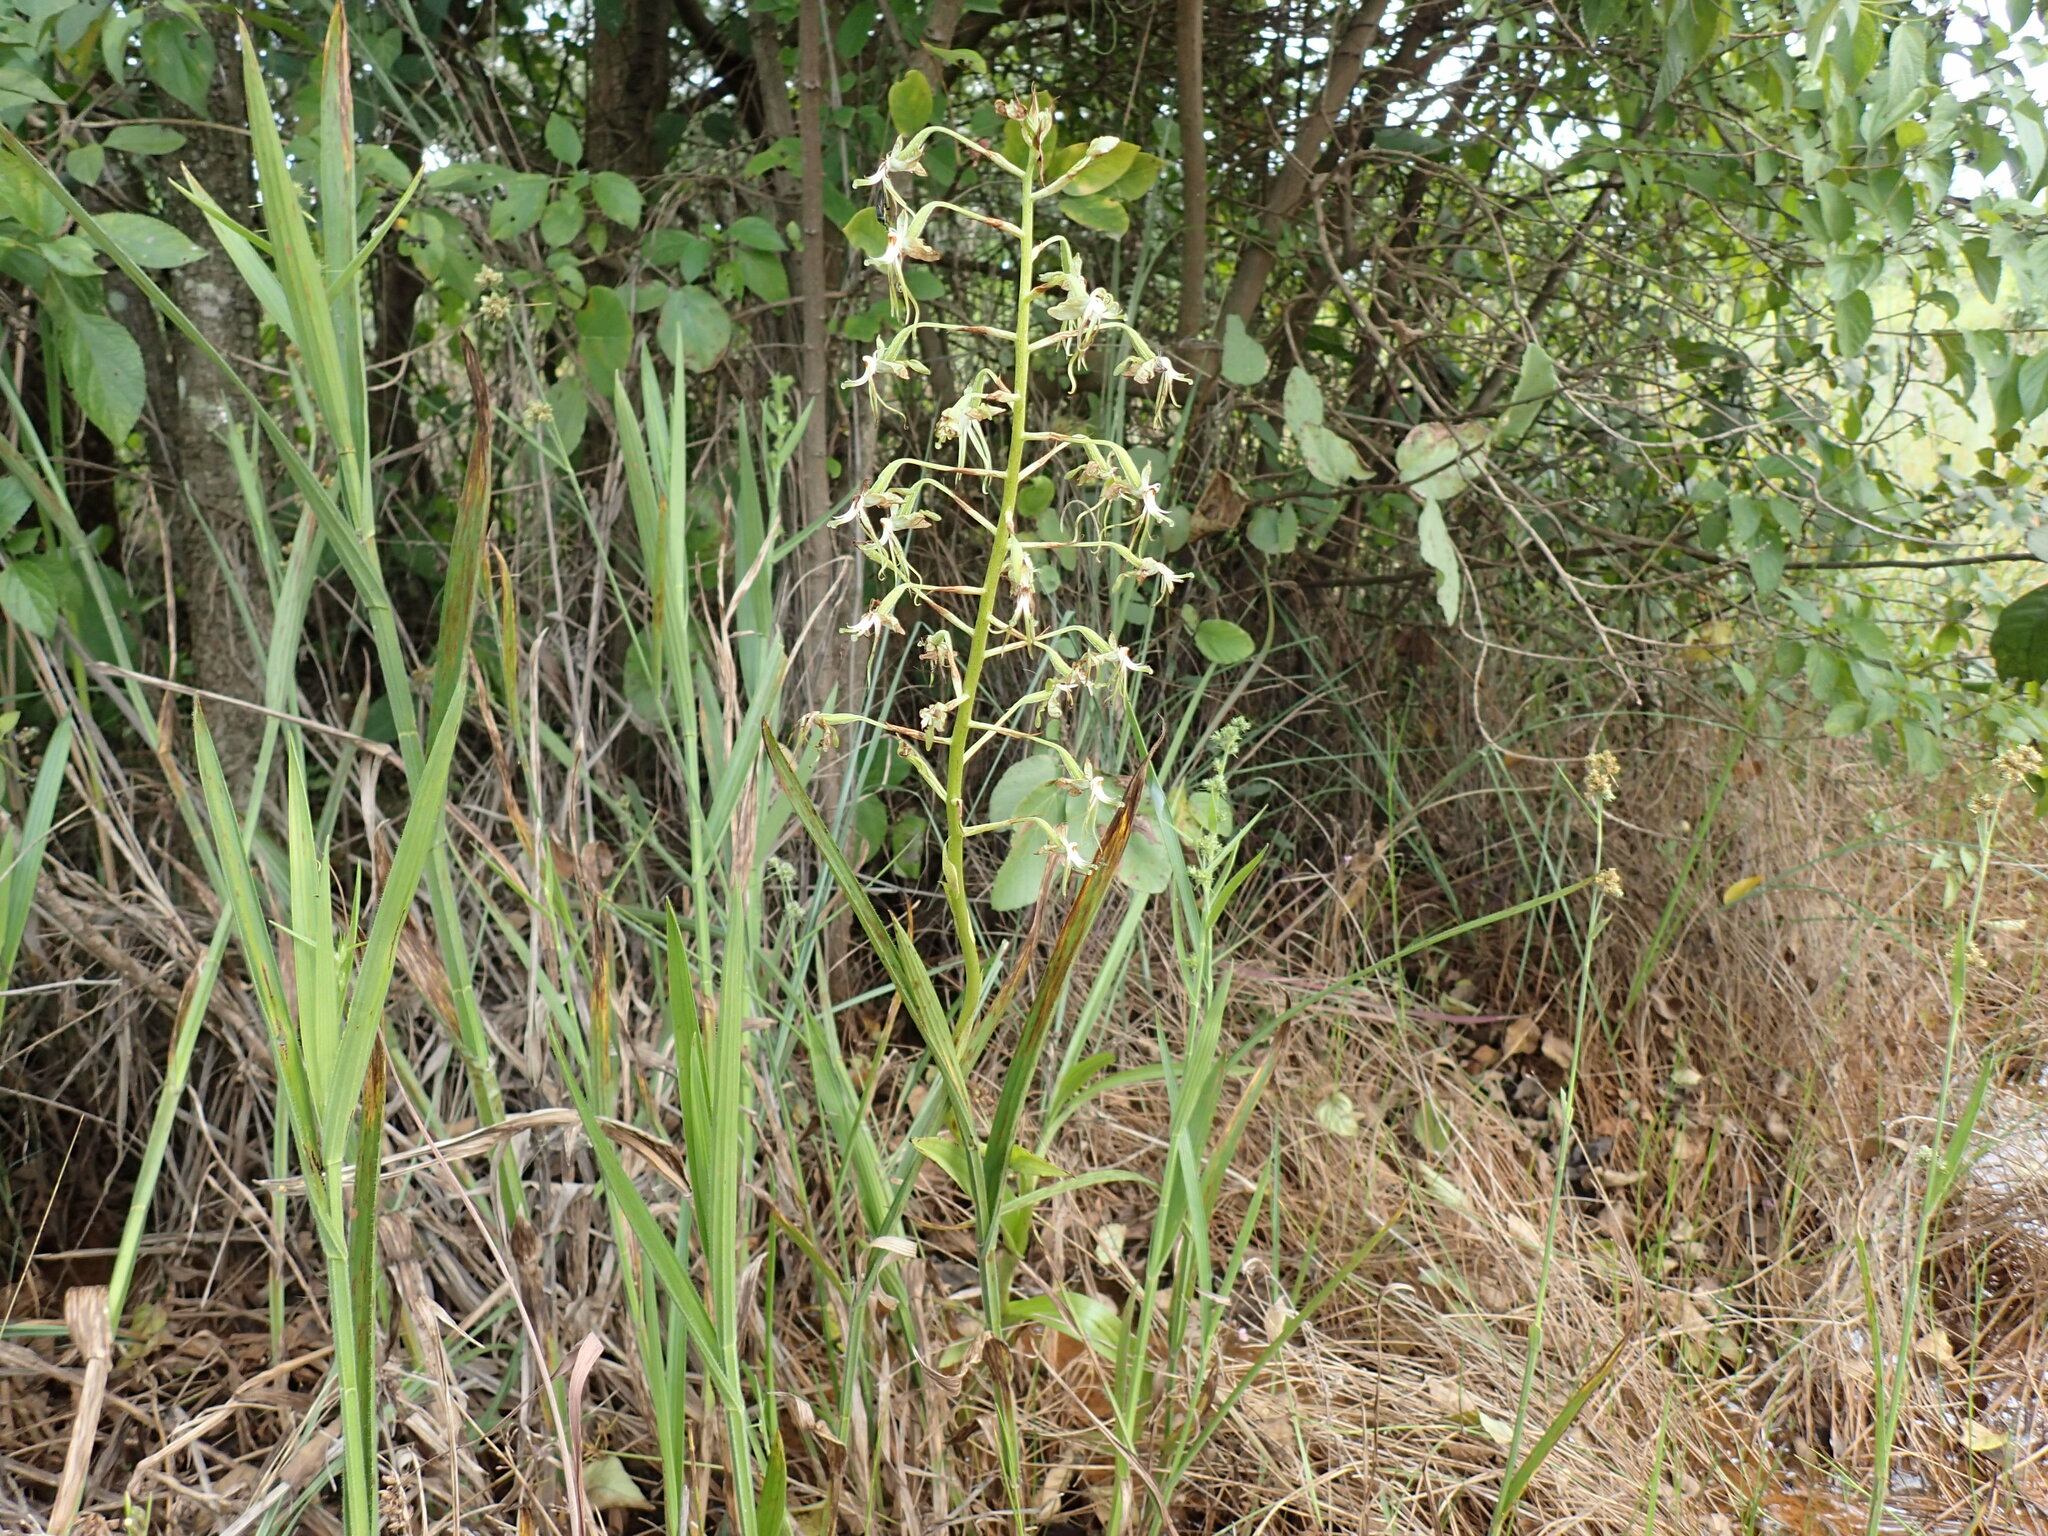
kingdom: Plantae
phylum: Tracheophyta
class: Liliopsida
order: Asparagales
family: Orchidaceae
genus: Habenaria
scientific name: Habenaria schimperiana
